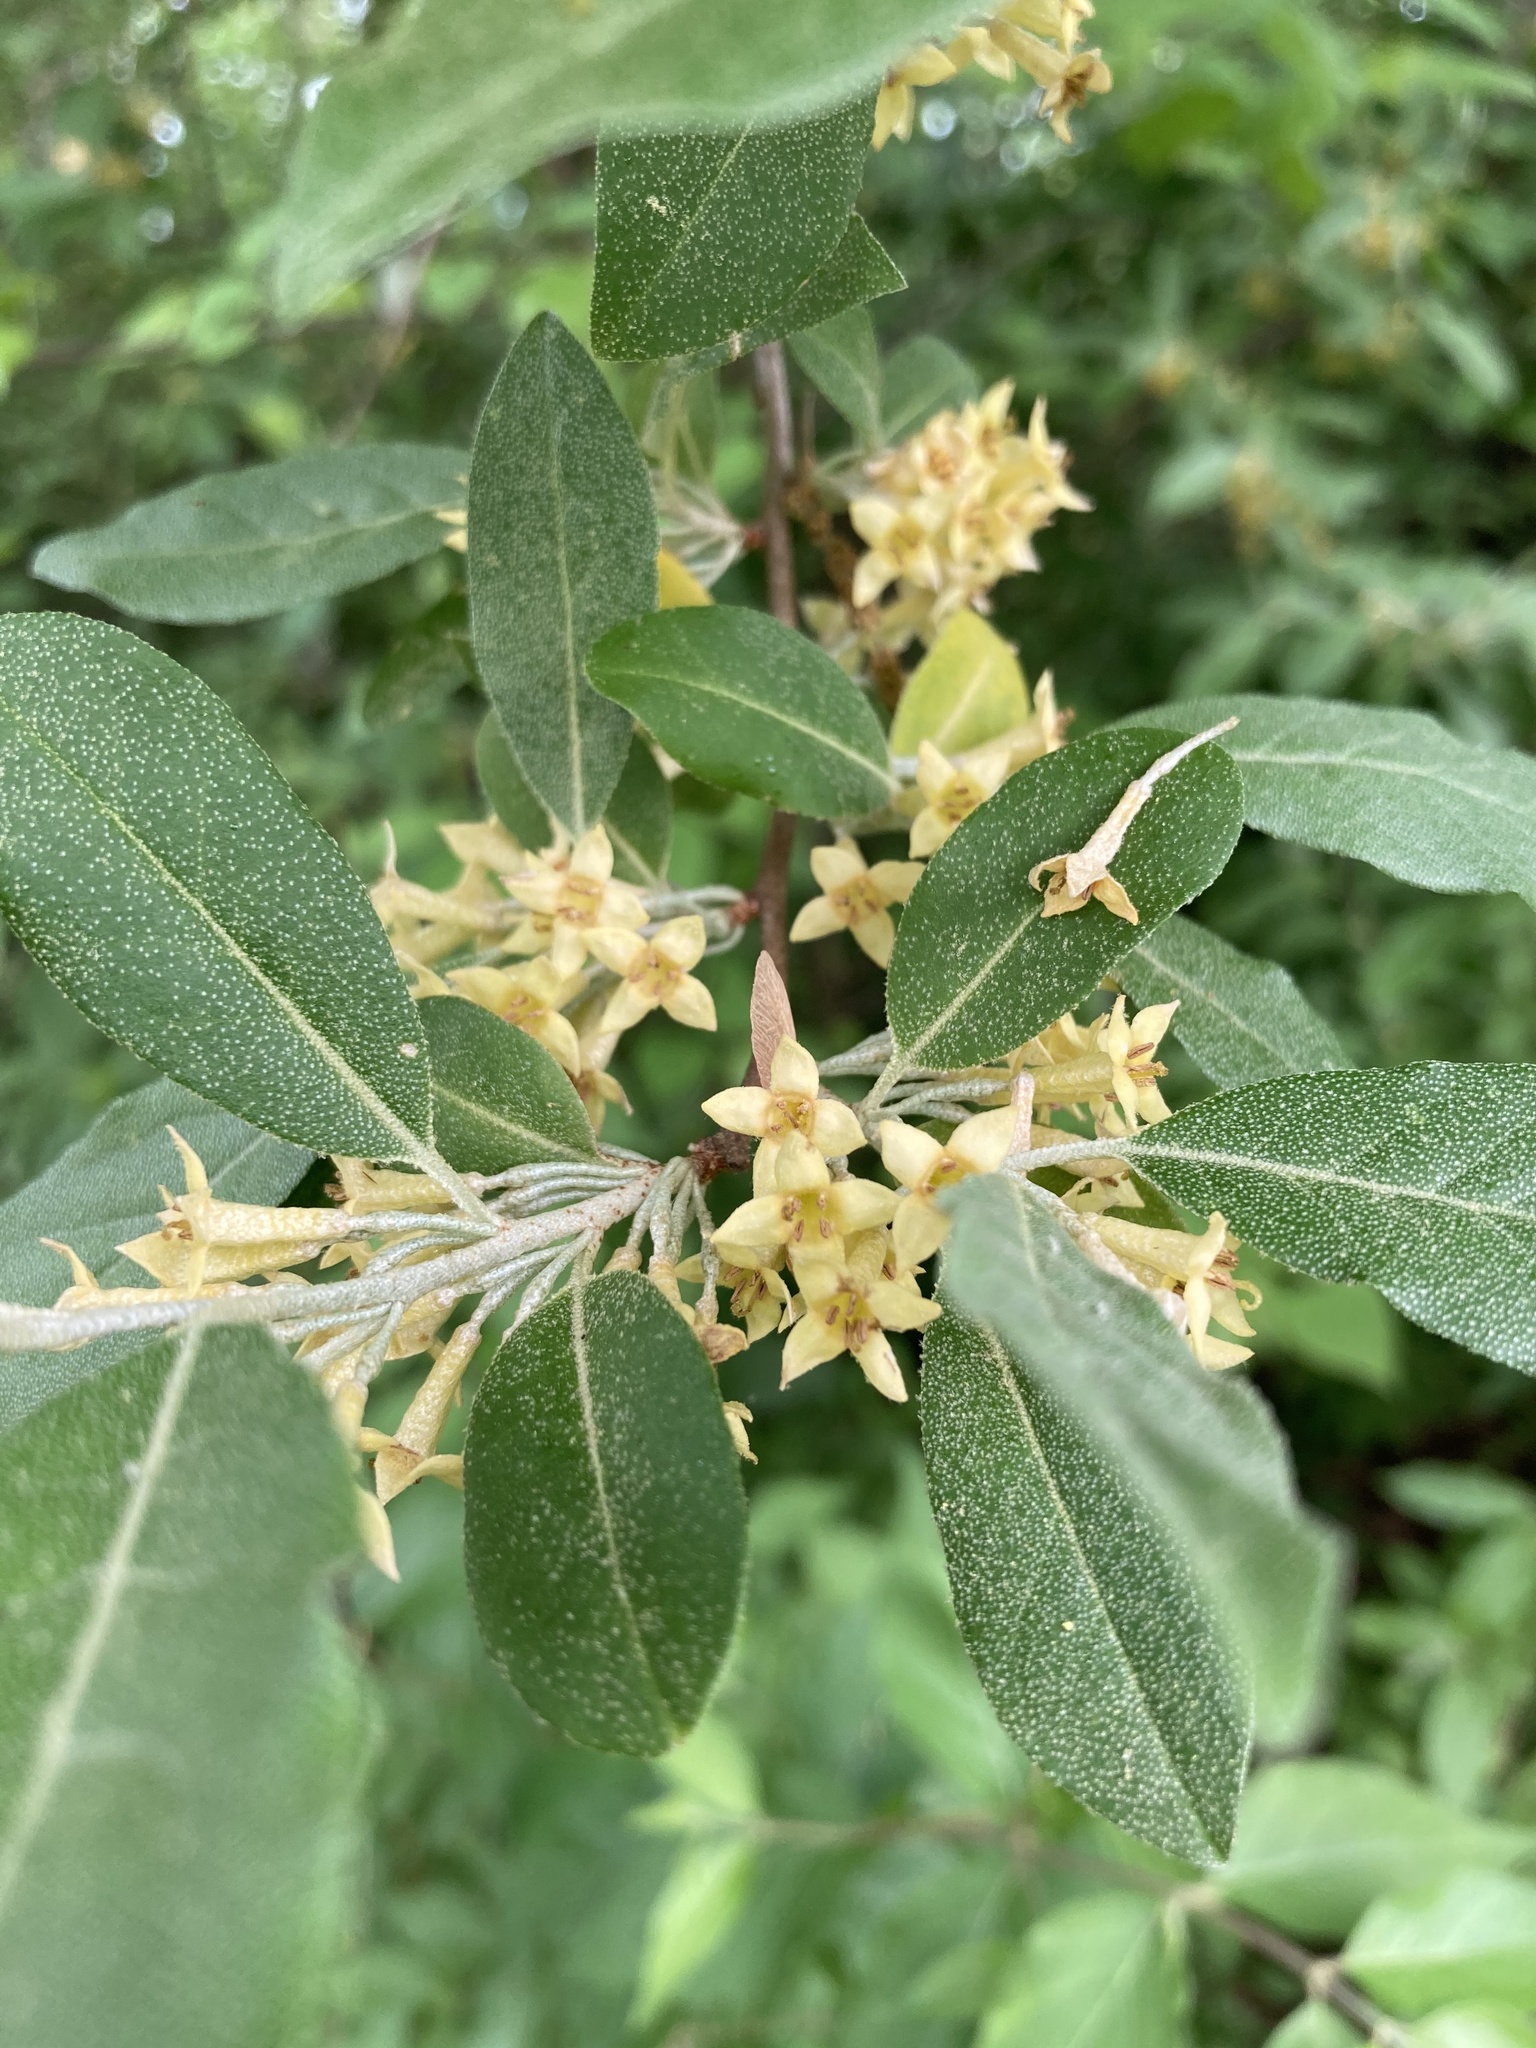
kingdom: Plantae
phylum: Tracheophyta
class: Magnoliopsida
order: Rosales
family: Elaeagnaceae
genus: Elaeagnus
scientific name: Elaeagnus umbellata
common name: Autumn olive
